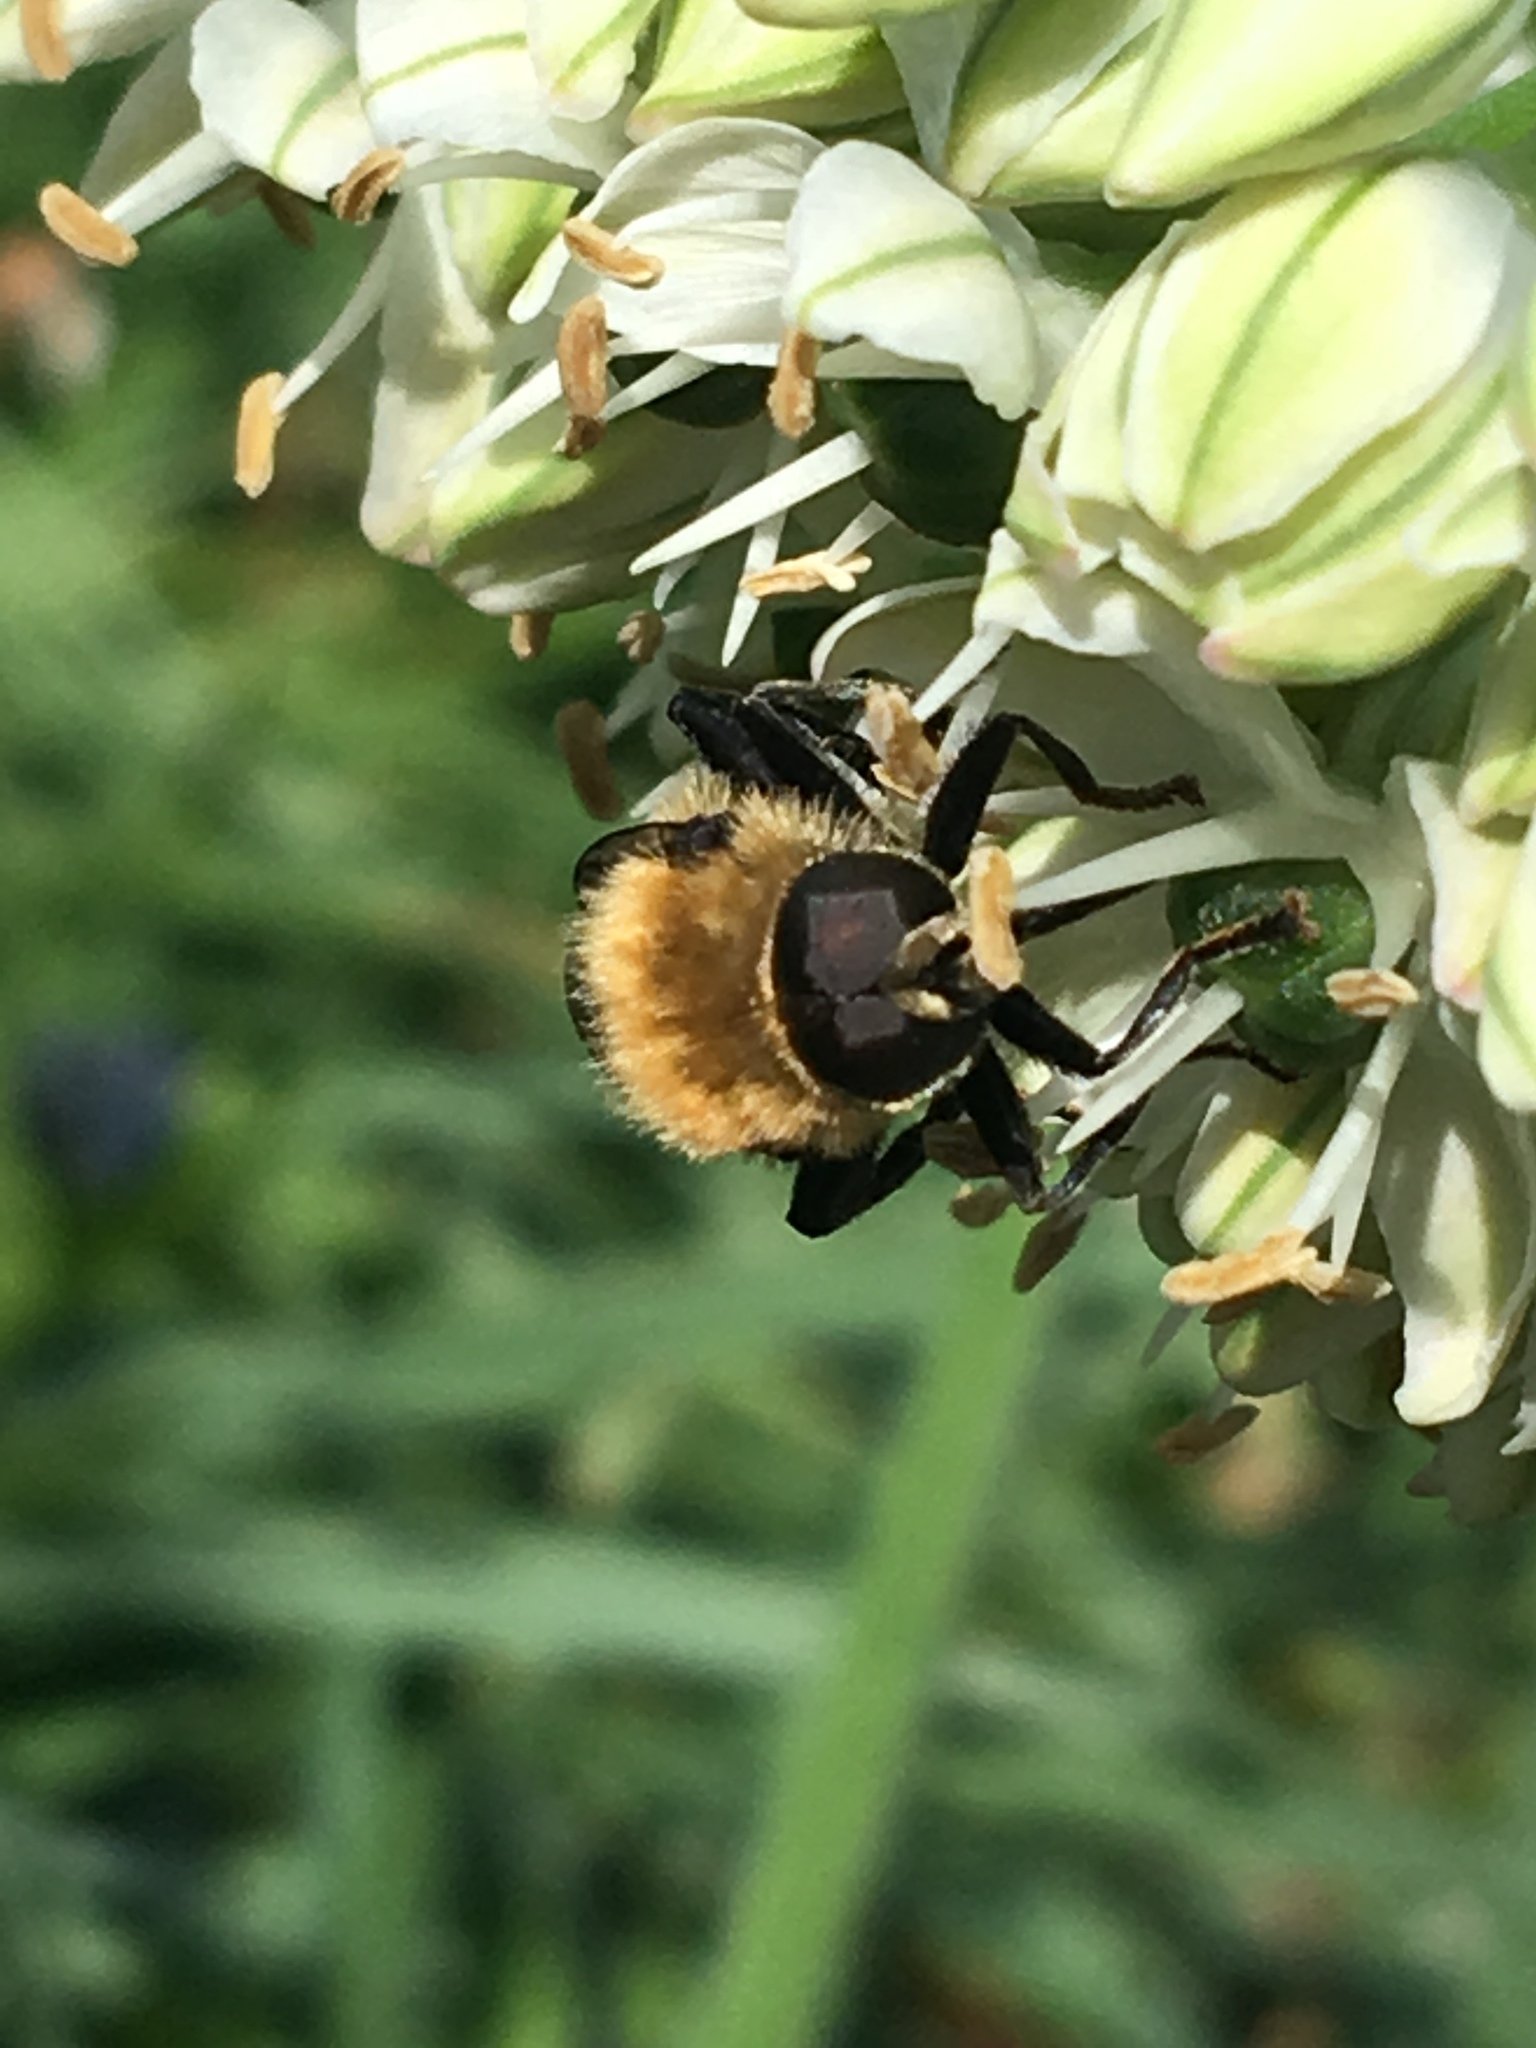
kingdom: Animalia
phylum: Arthropoda
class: Insecta
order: Diptera
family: Syrphidae
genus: Merodon
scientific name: Merodon equestris
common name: Greater bulb-fly
